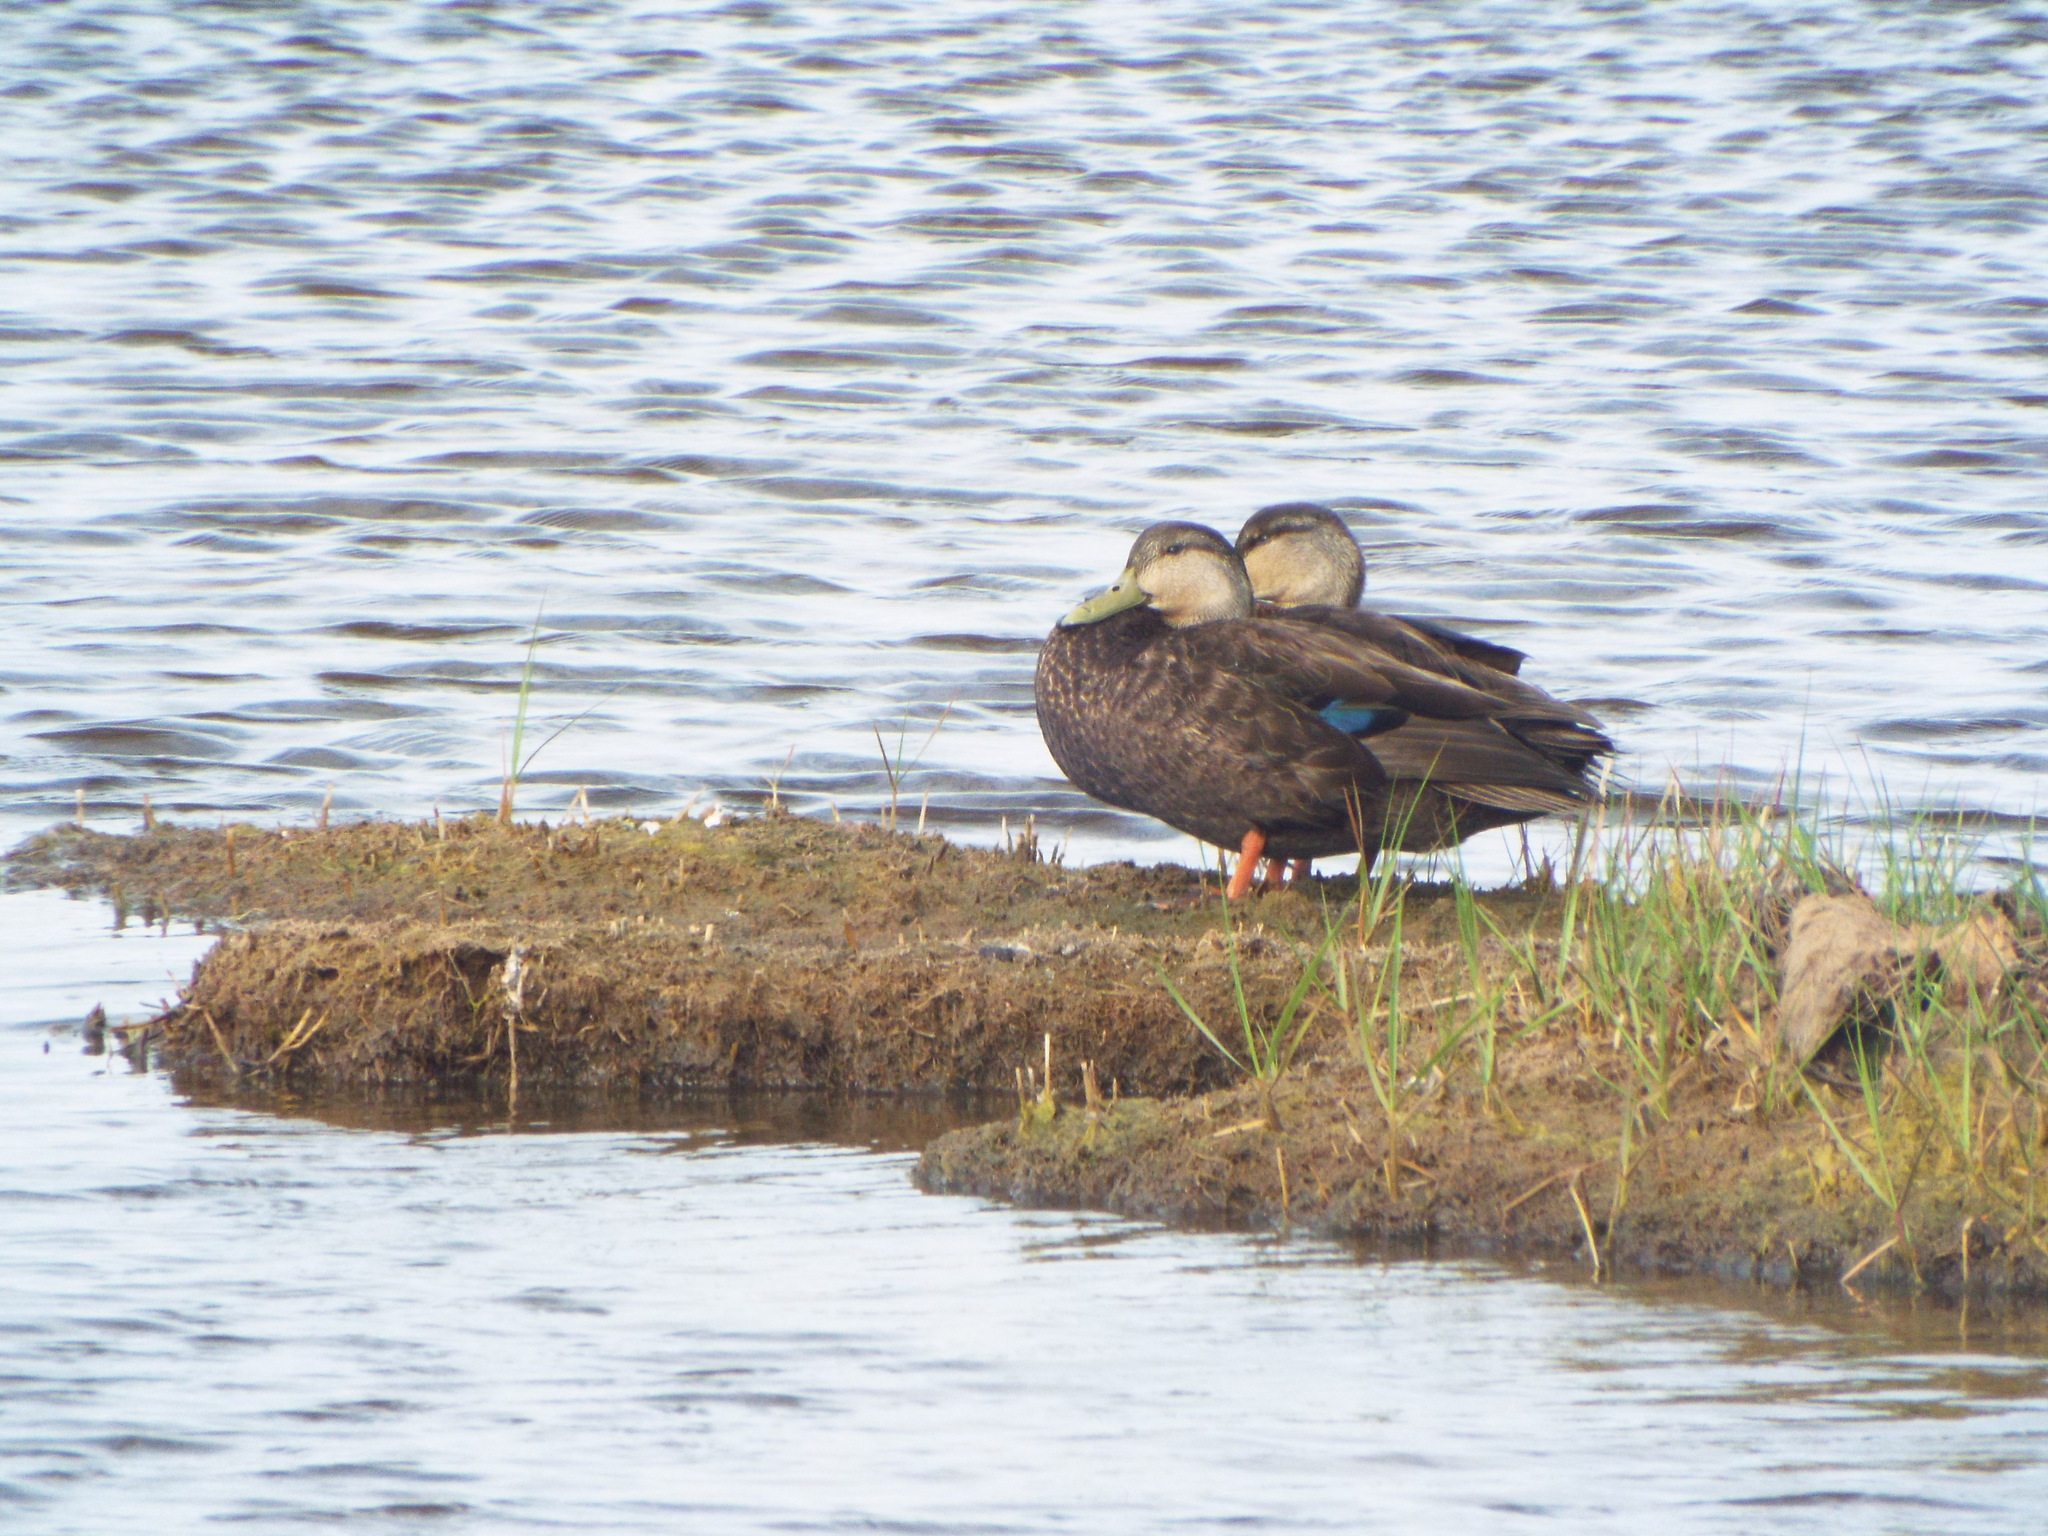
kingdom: Animalia
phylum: Chordata
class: Aves
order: Anseriformes
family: Anatidae
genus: Anas
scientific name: Anas rubripes
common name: American black duck
